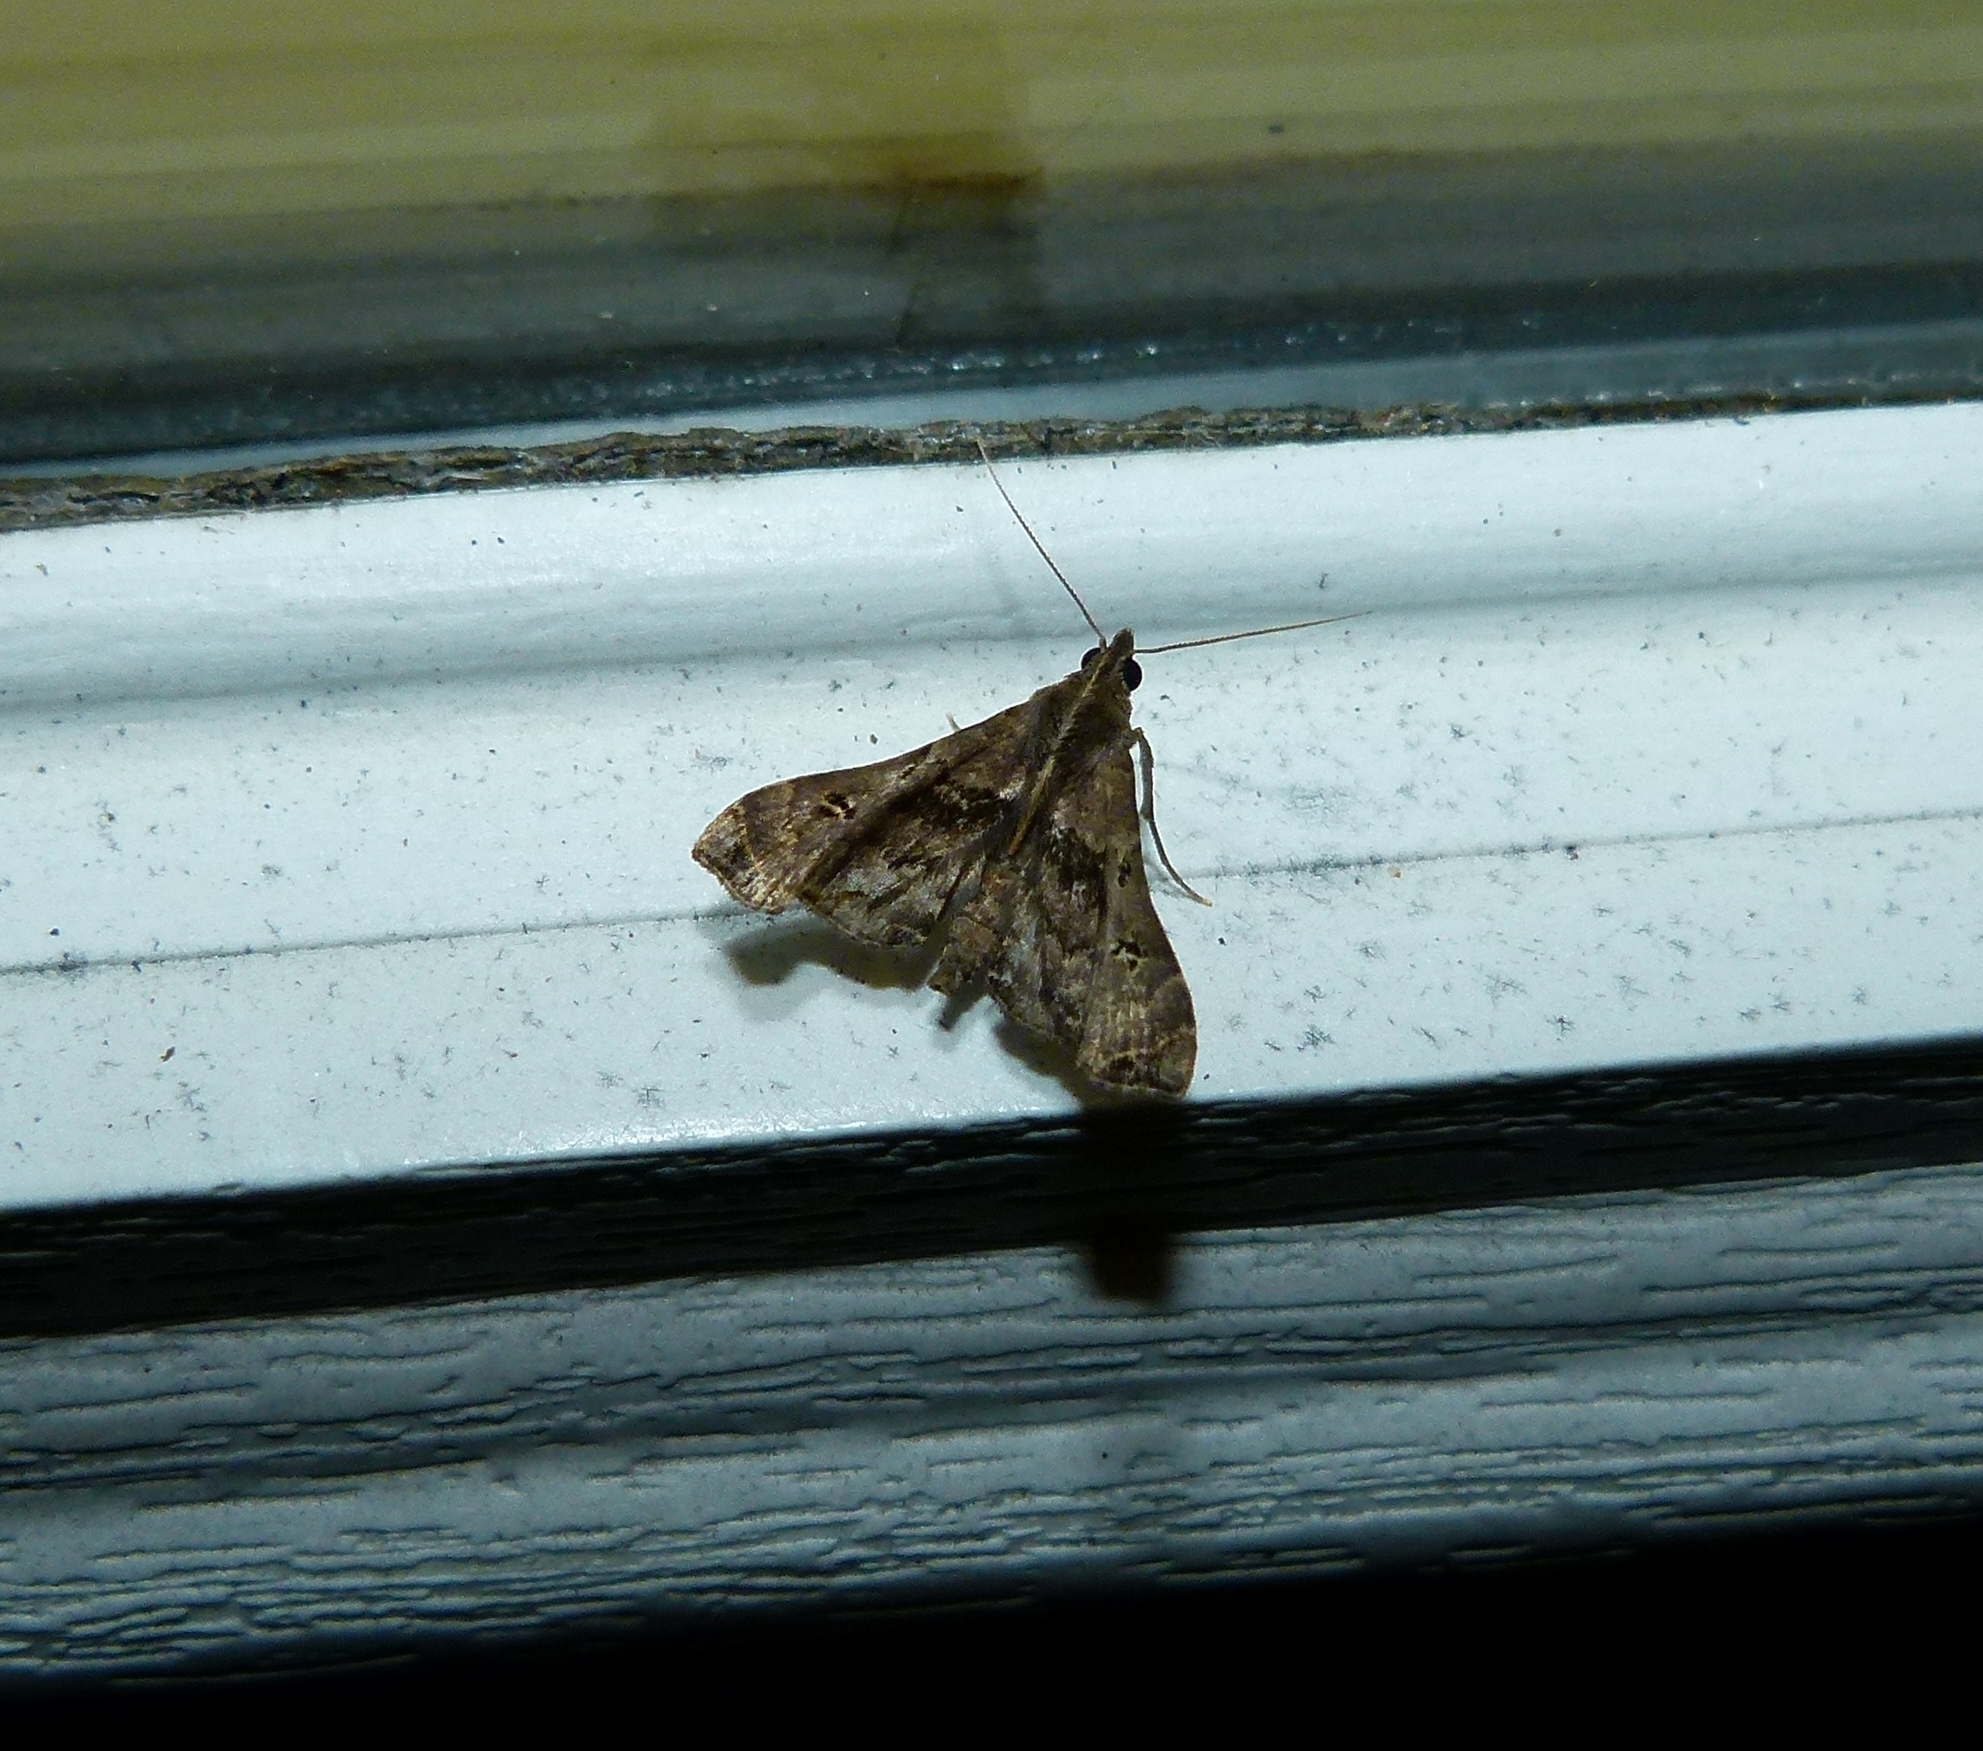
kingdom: Animalia
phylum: Arthropoda
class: Insecta
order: Lepidoptera
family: Erebidae
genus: Palthis
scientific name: Palthis asopialis
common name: Faint-spotted palthis moth
